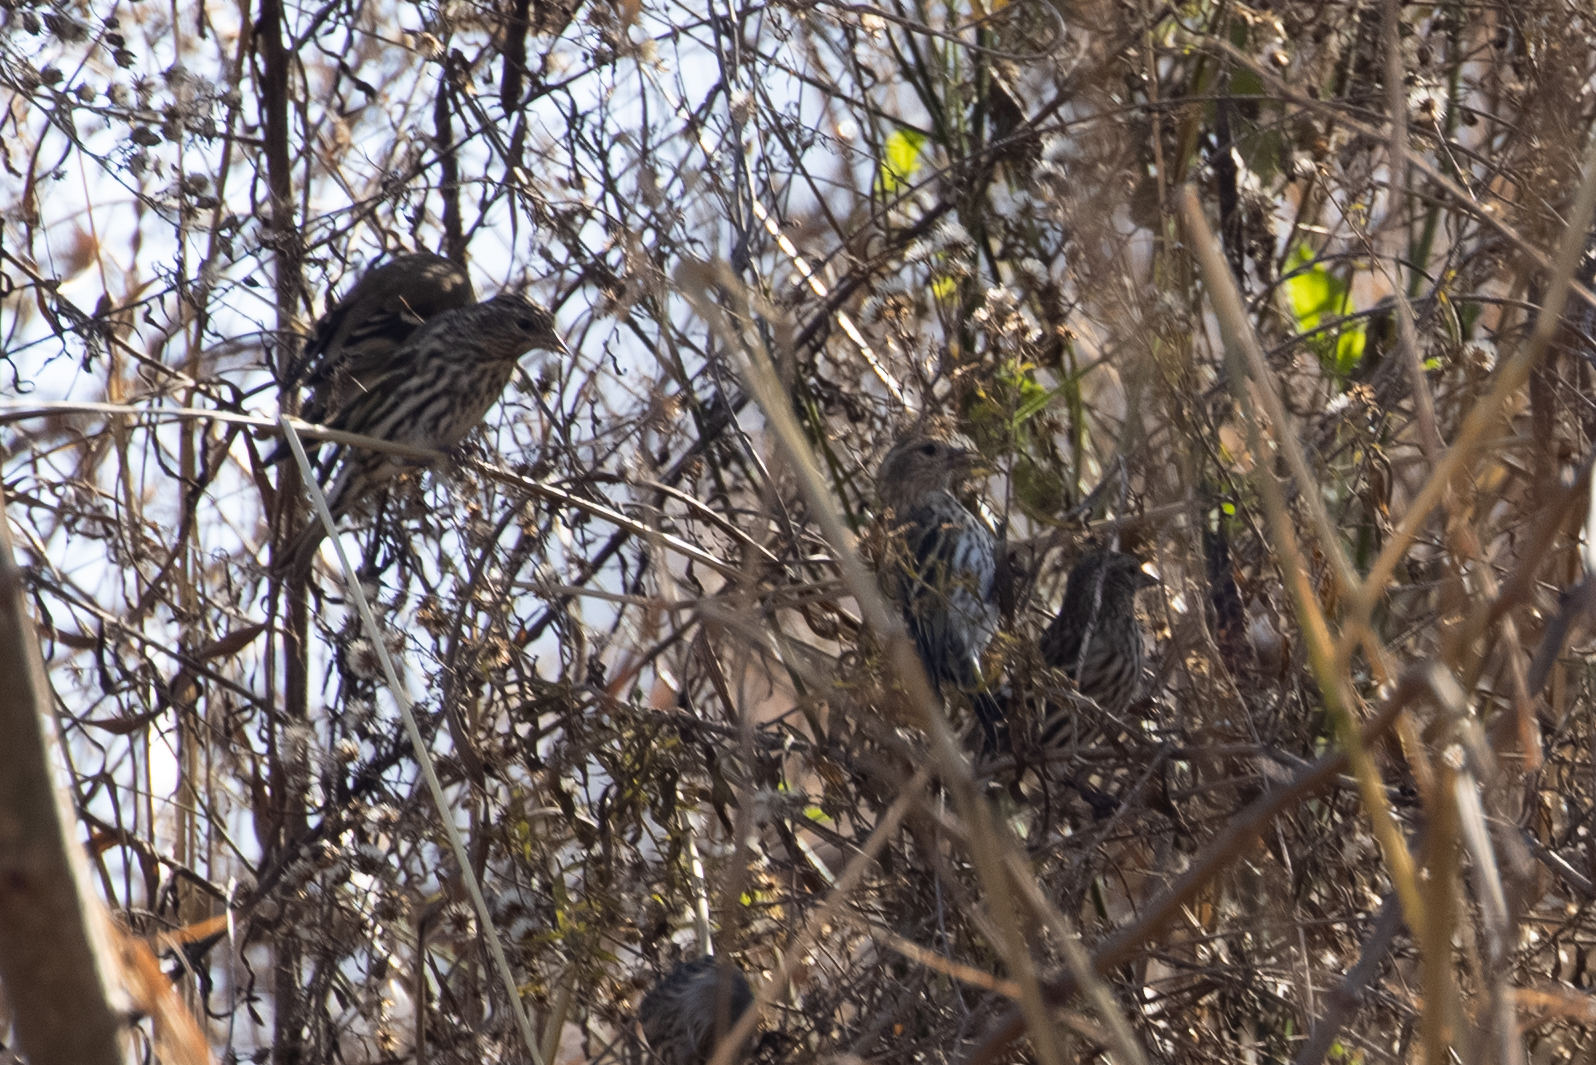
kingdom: Animalia
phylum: Chordata
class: Aves
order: Passeriformes
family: Fringillidae
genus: Spinus
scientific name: Spinus pinus
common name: Pine siskin
